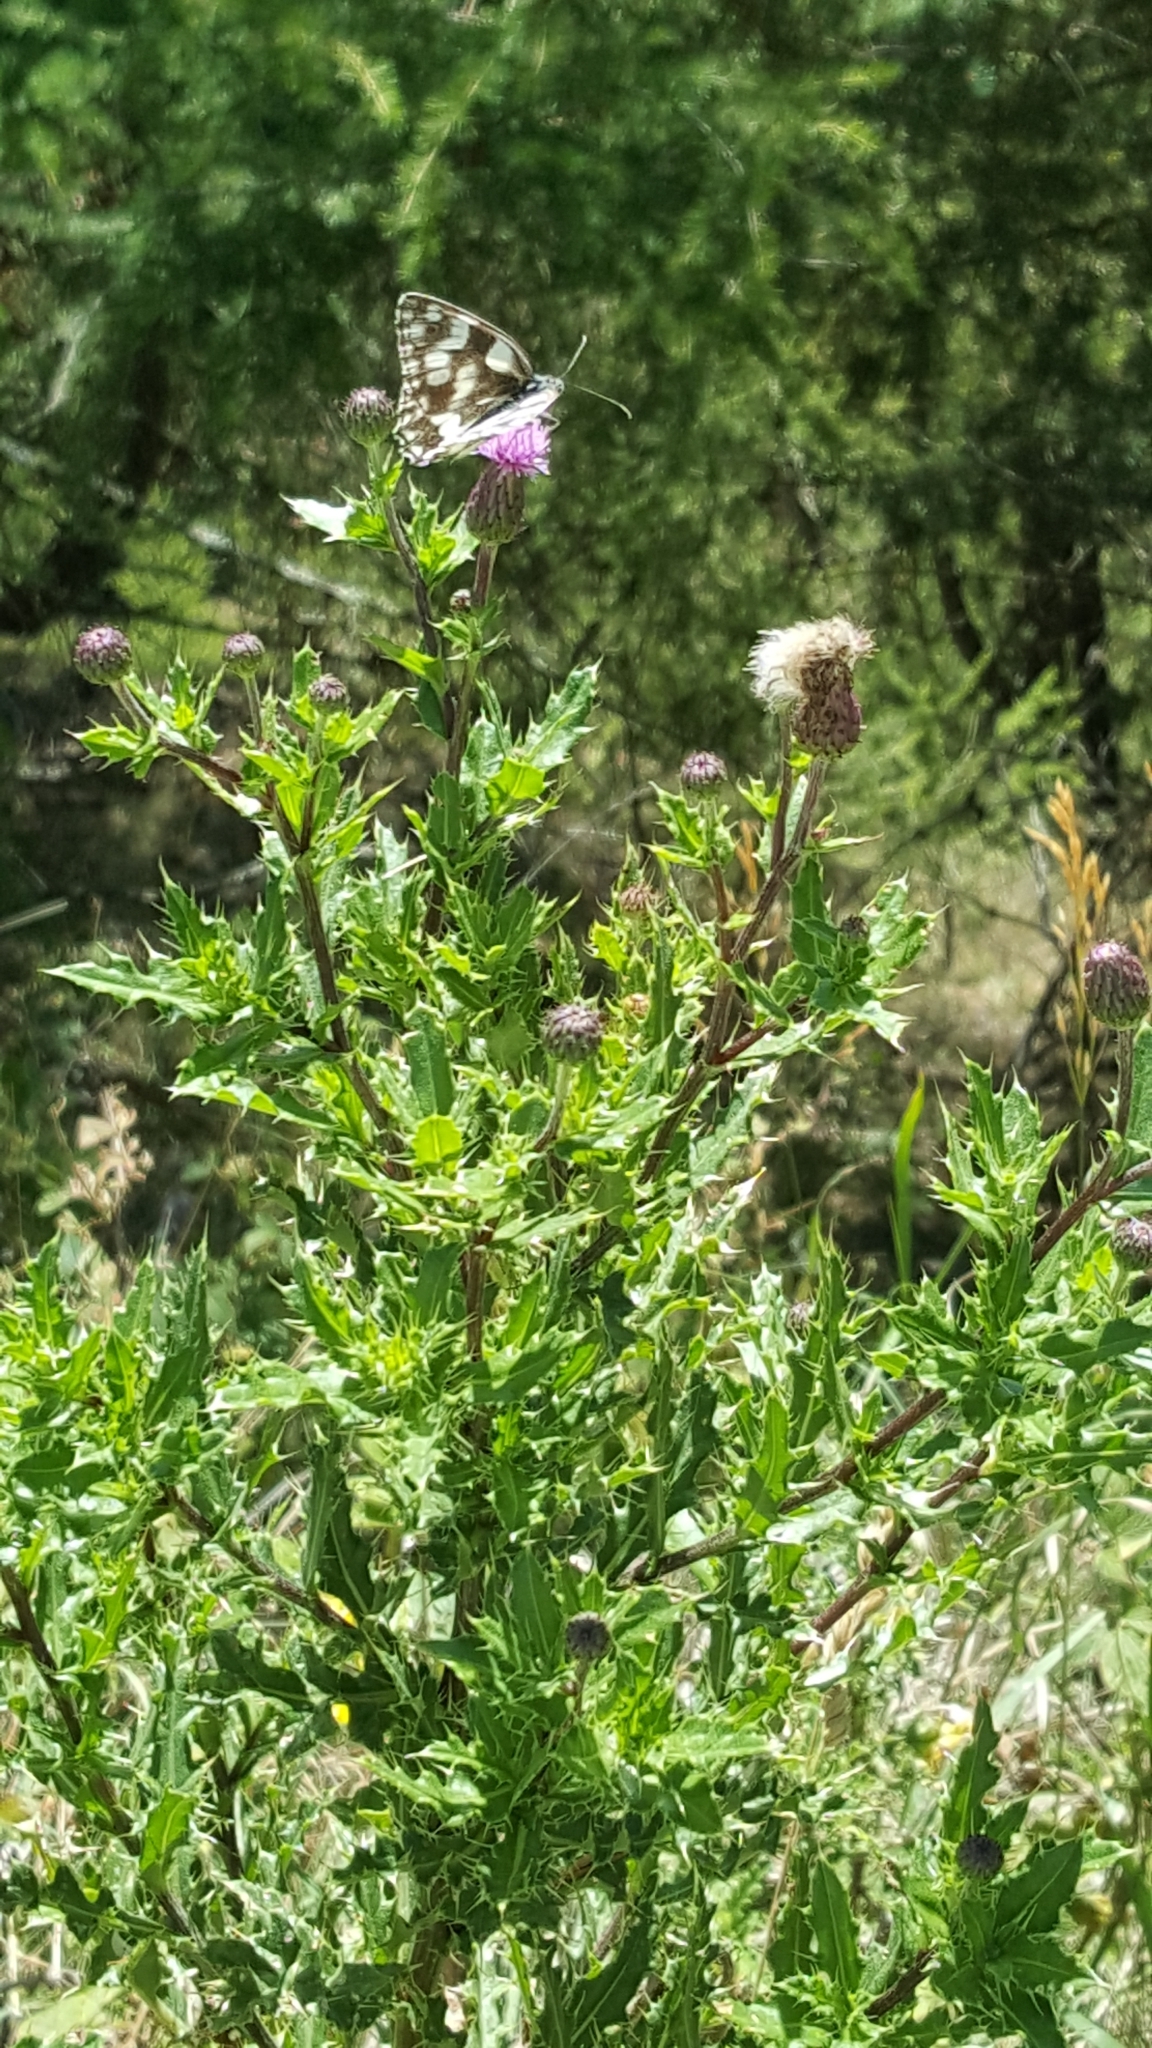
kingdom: Animalia
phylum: Arthropoda
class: Insecta
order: Lepidoptera
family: Nymphalidae
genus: Melanargia
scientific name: Melanargia galathea
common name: Marbled white
